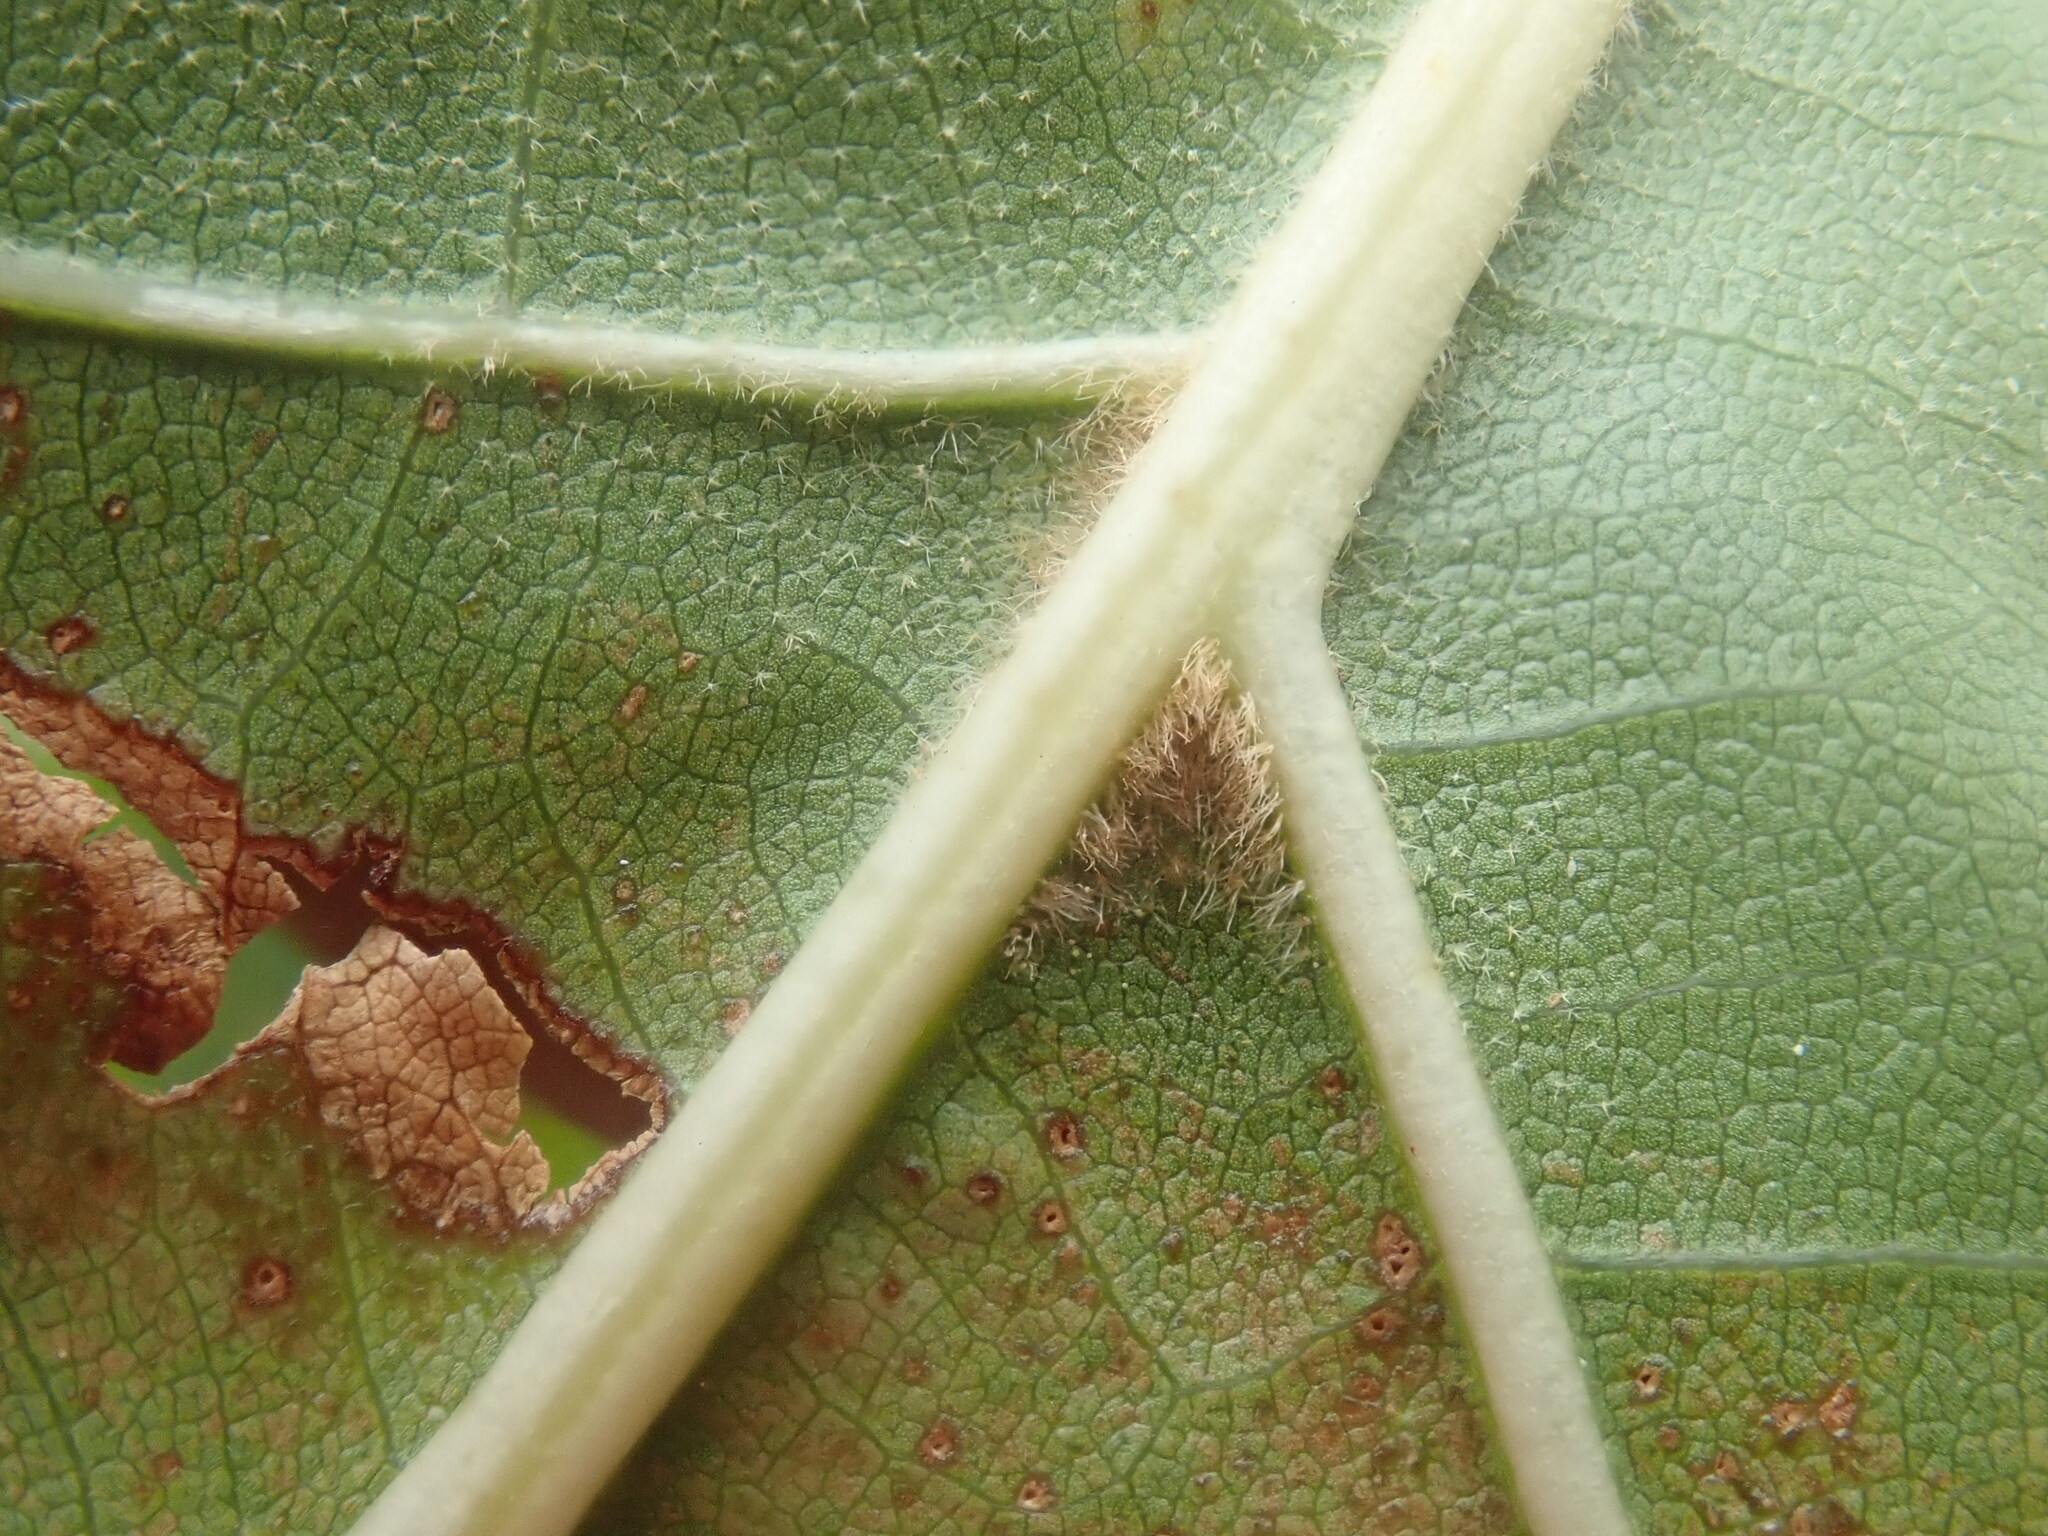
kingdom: Plantae
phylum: Tracheophyta
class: Magnoliopsida
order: Fagales
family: Fagaceae
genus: Quercus
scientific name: Quercus velutina
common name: Black oak
